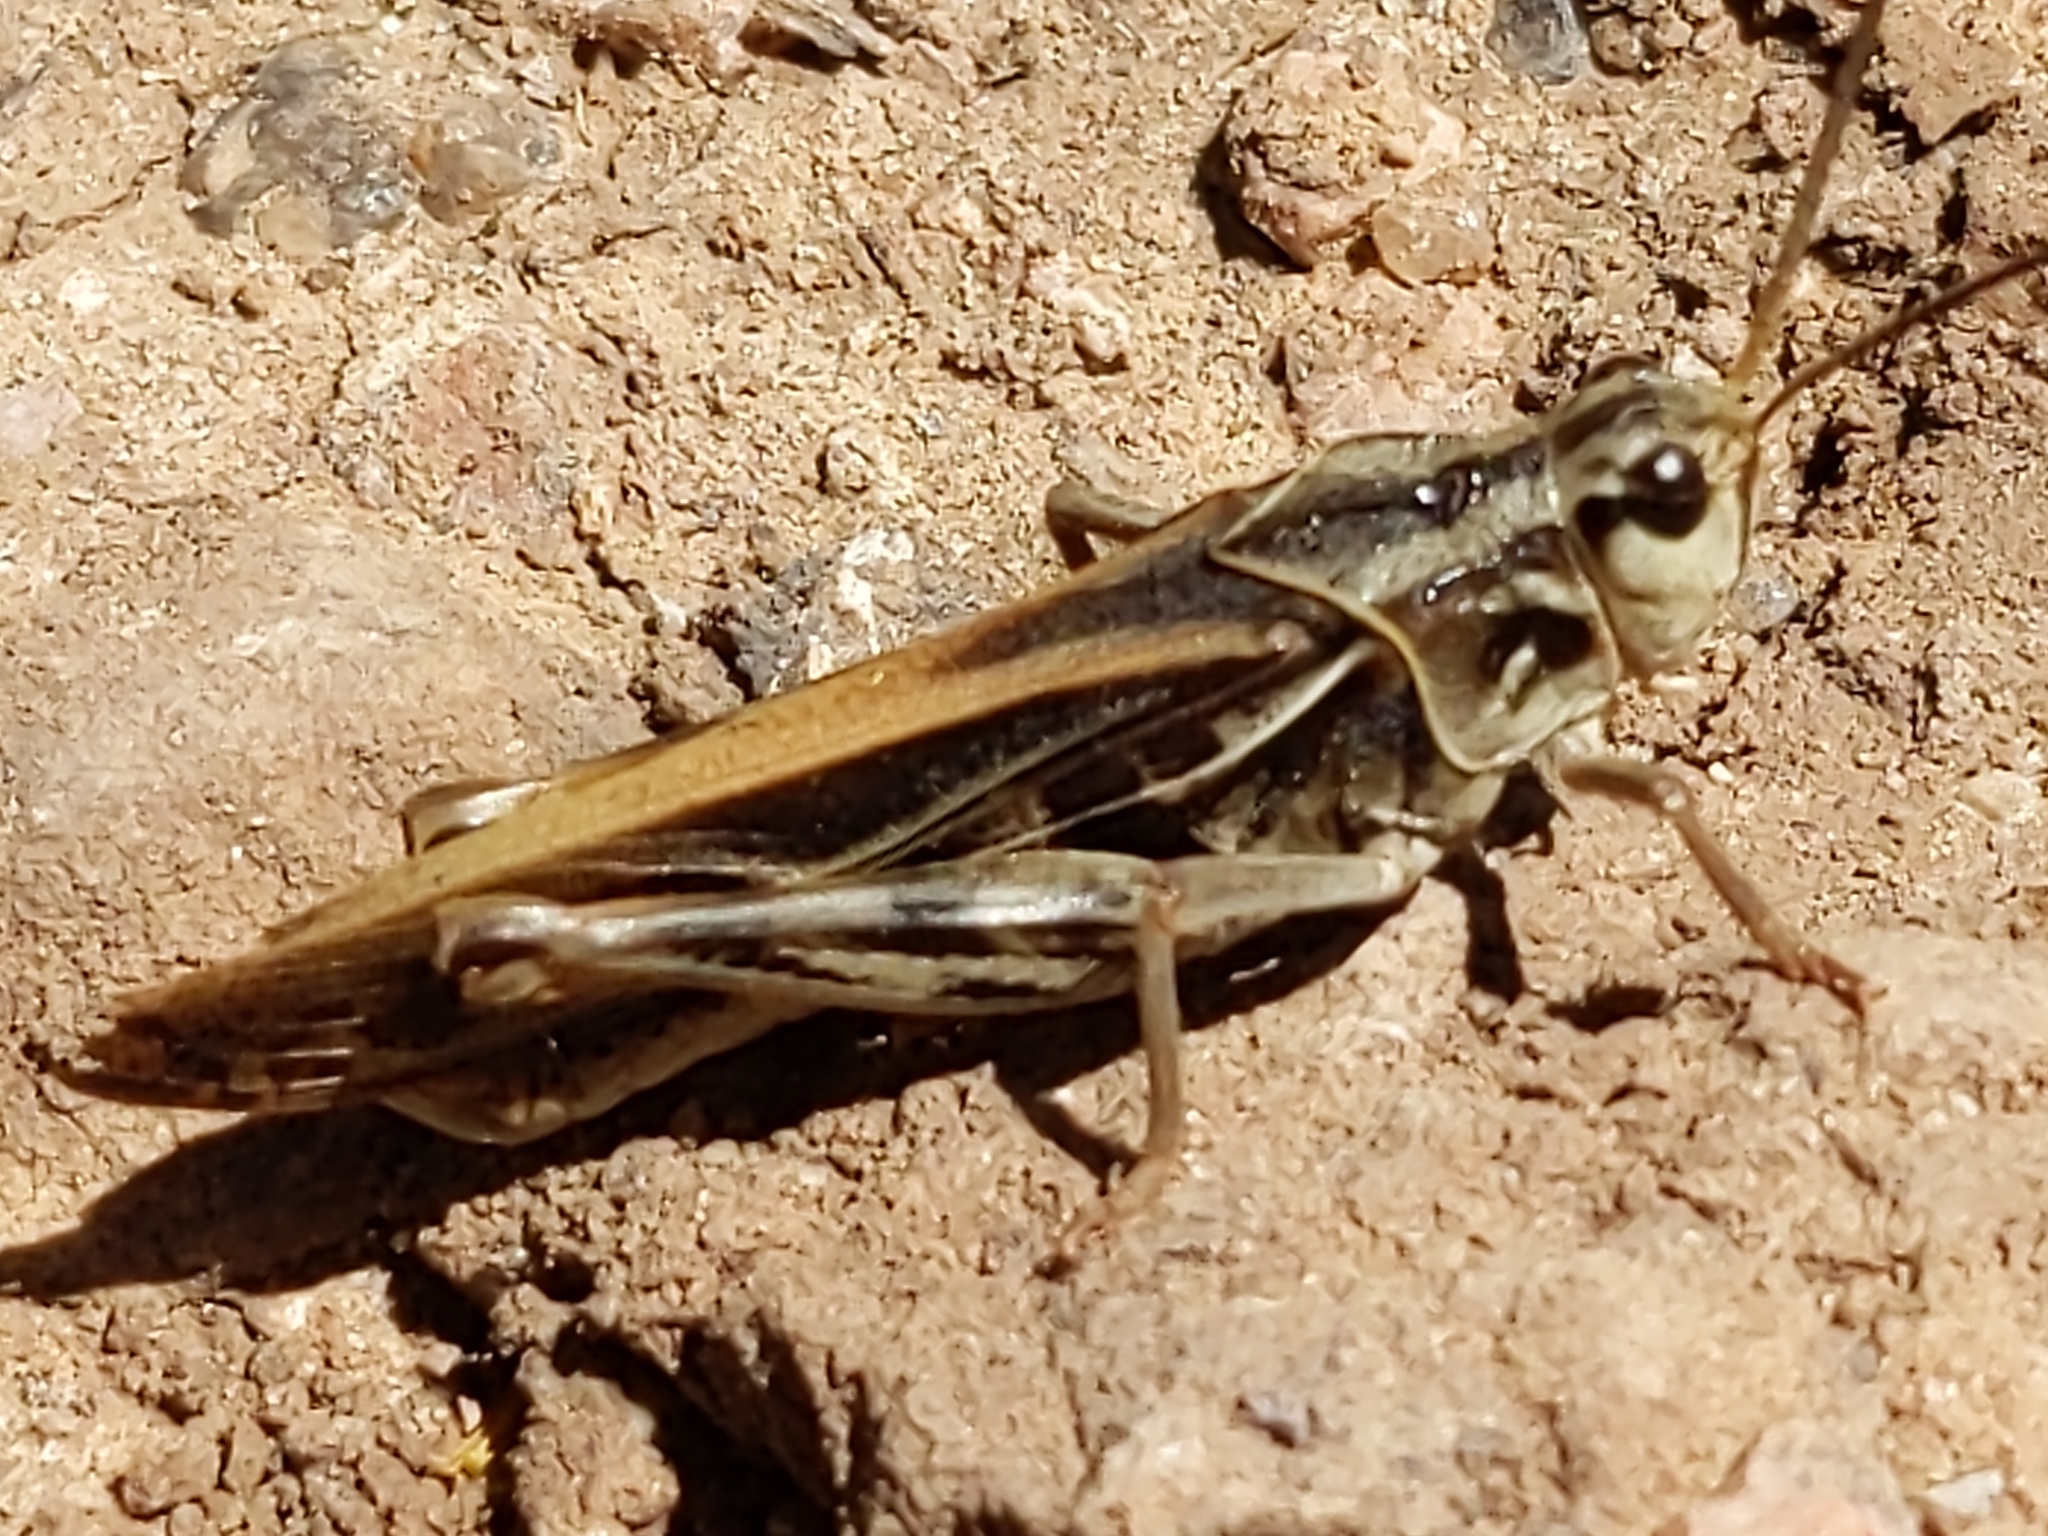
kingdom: Animalia
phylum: Arthropoda
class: Insecta
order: Orthoptera
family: Acrididae
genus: Pardalophora
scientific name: Pardalophora apiculata
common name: Coral-winged locust
